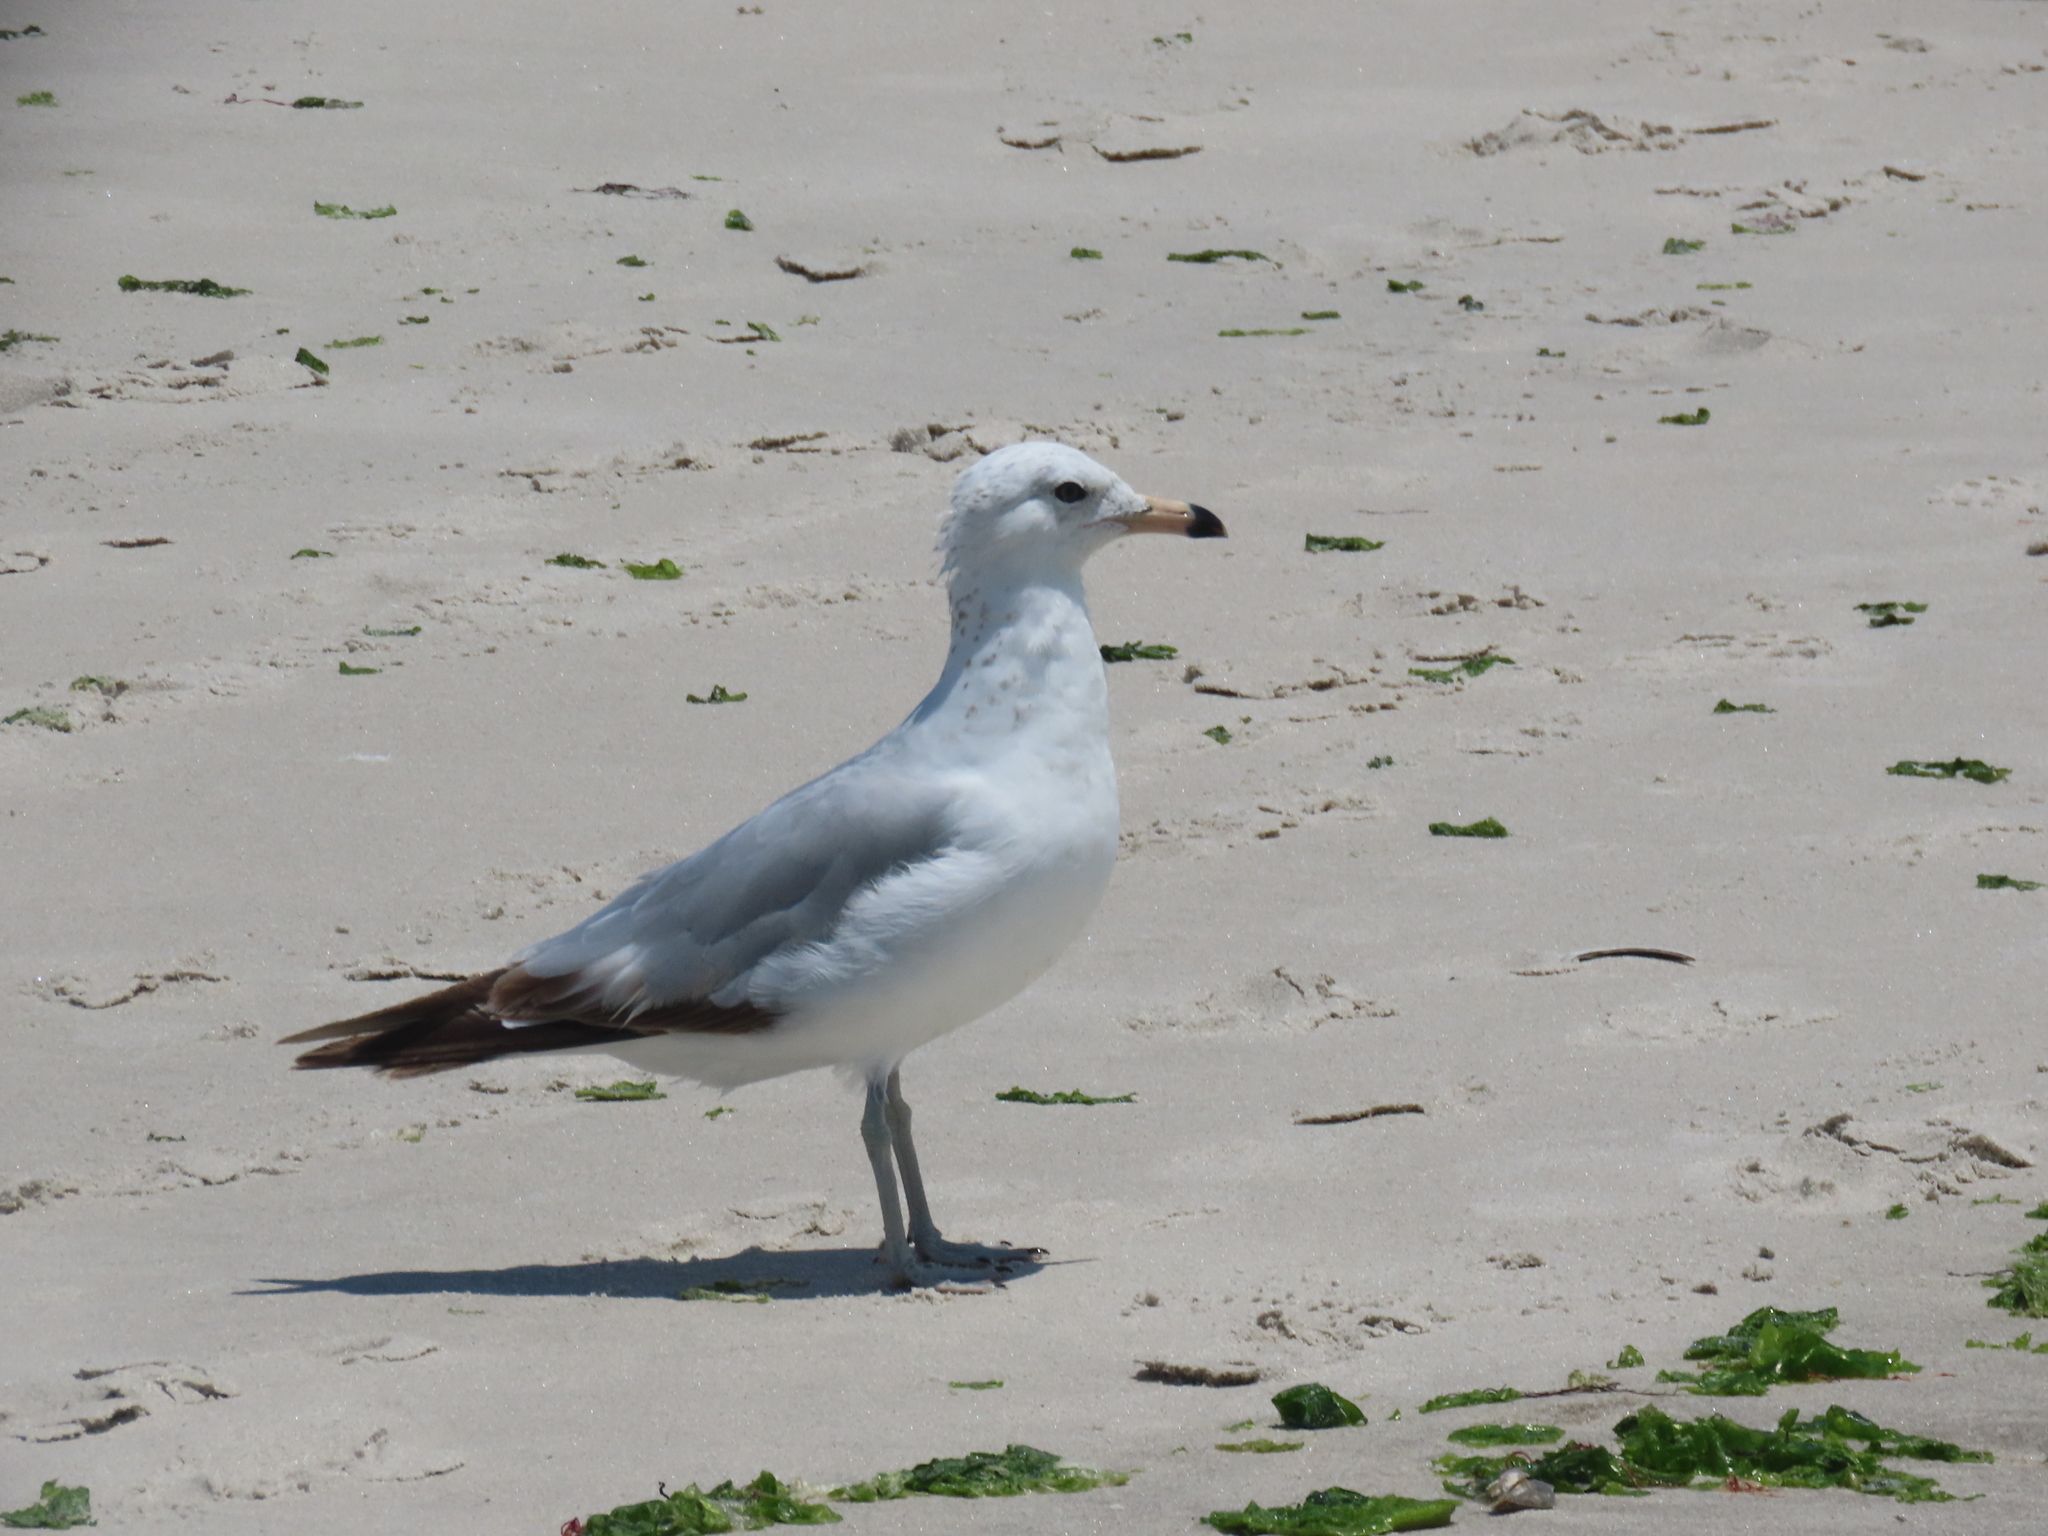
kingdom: Animalia
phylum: Chordata
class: Aves
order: Charadriiformes
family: Laridae
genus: Larus
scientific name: Larus delawarensis
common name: Ring-billed gull
